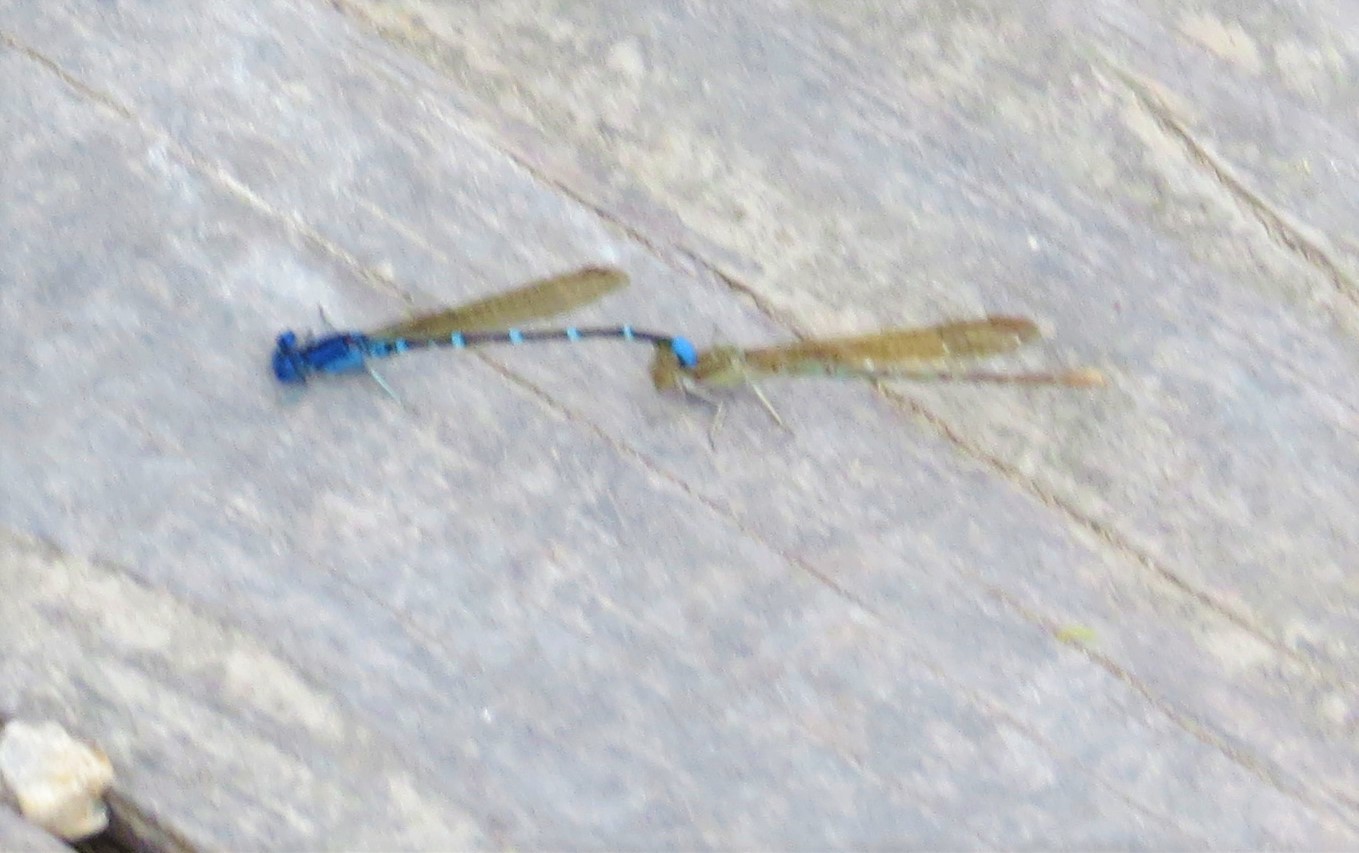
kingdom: Animalia
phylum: Arthropoda
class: Insecta
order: Odonata
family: Coenagrionidae
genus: Argia
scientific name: Argia sedula
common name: Blue-ringed dancer
